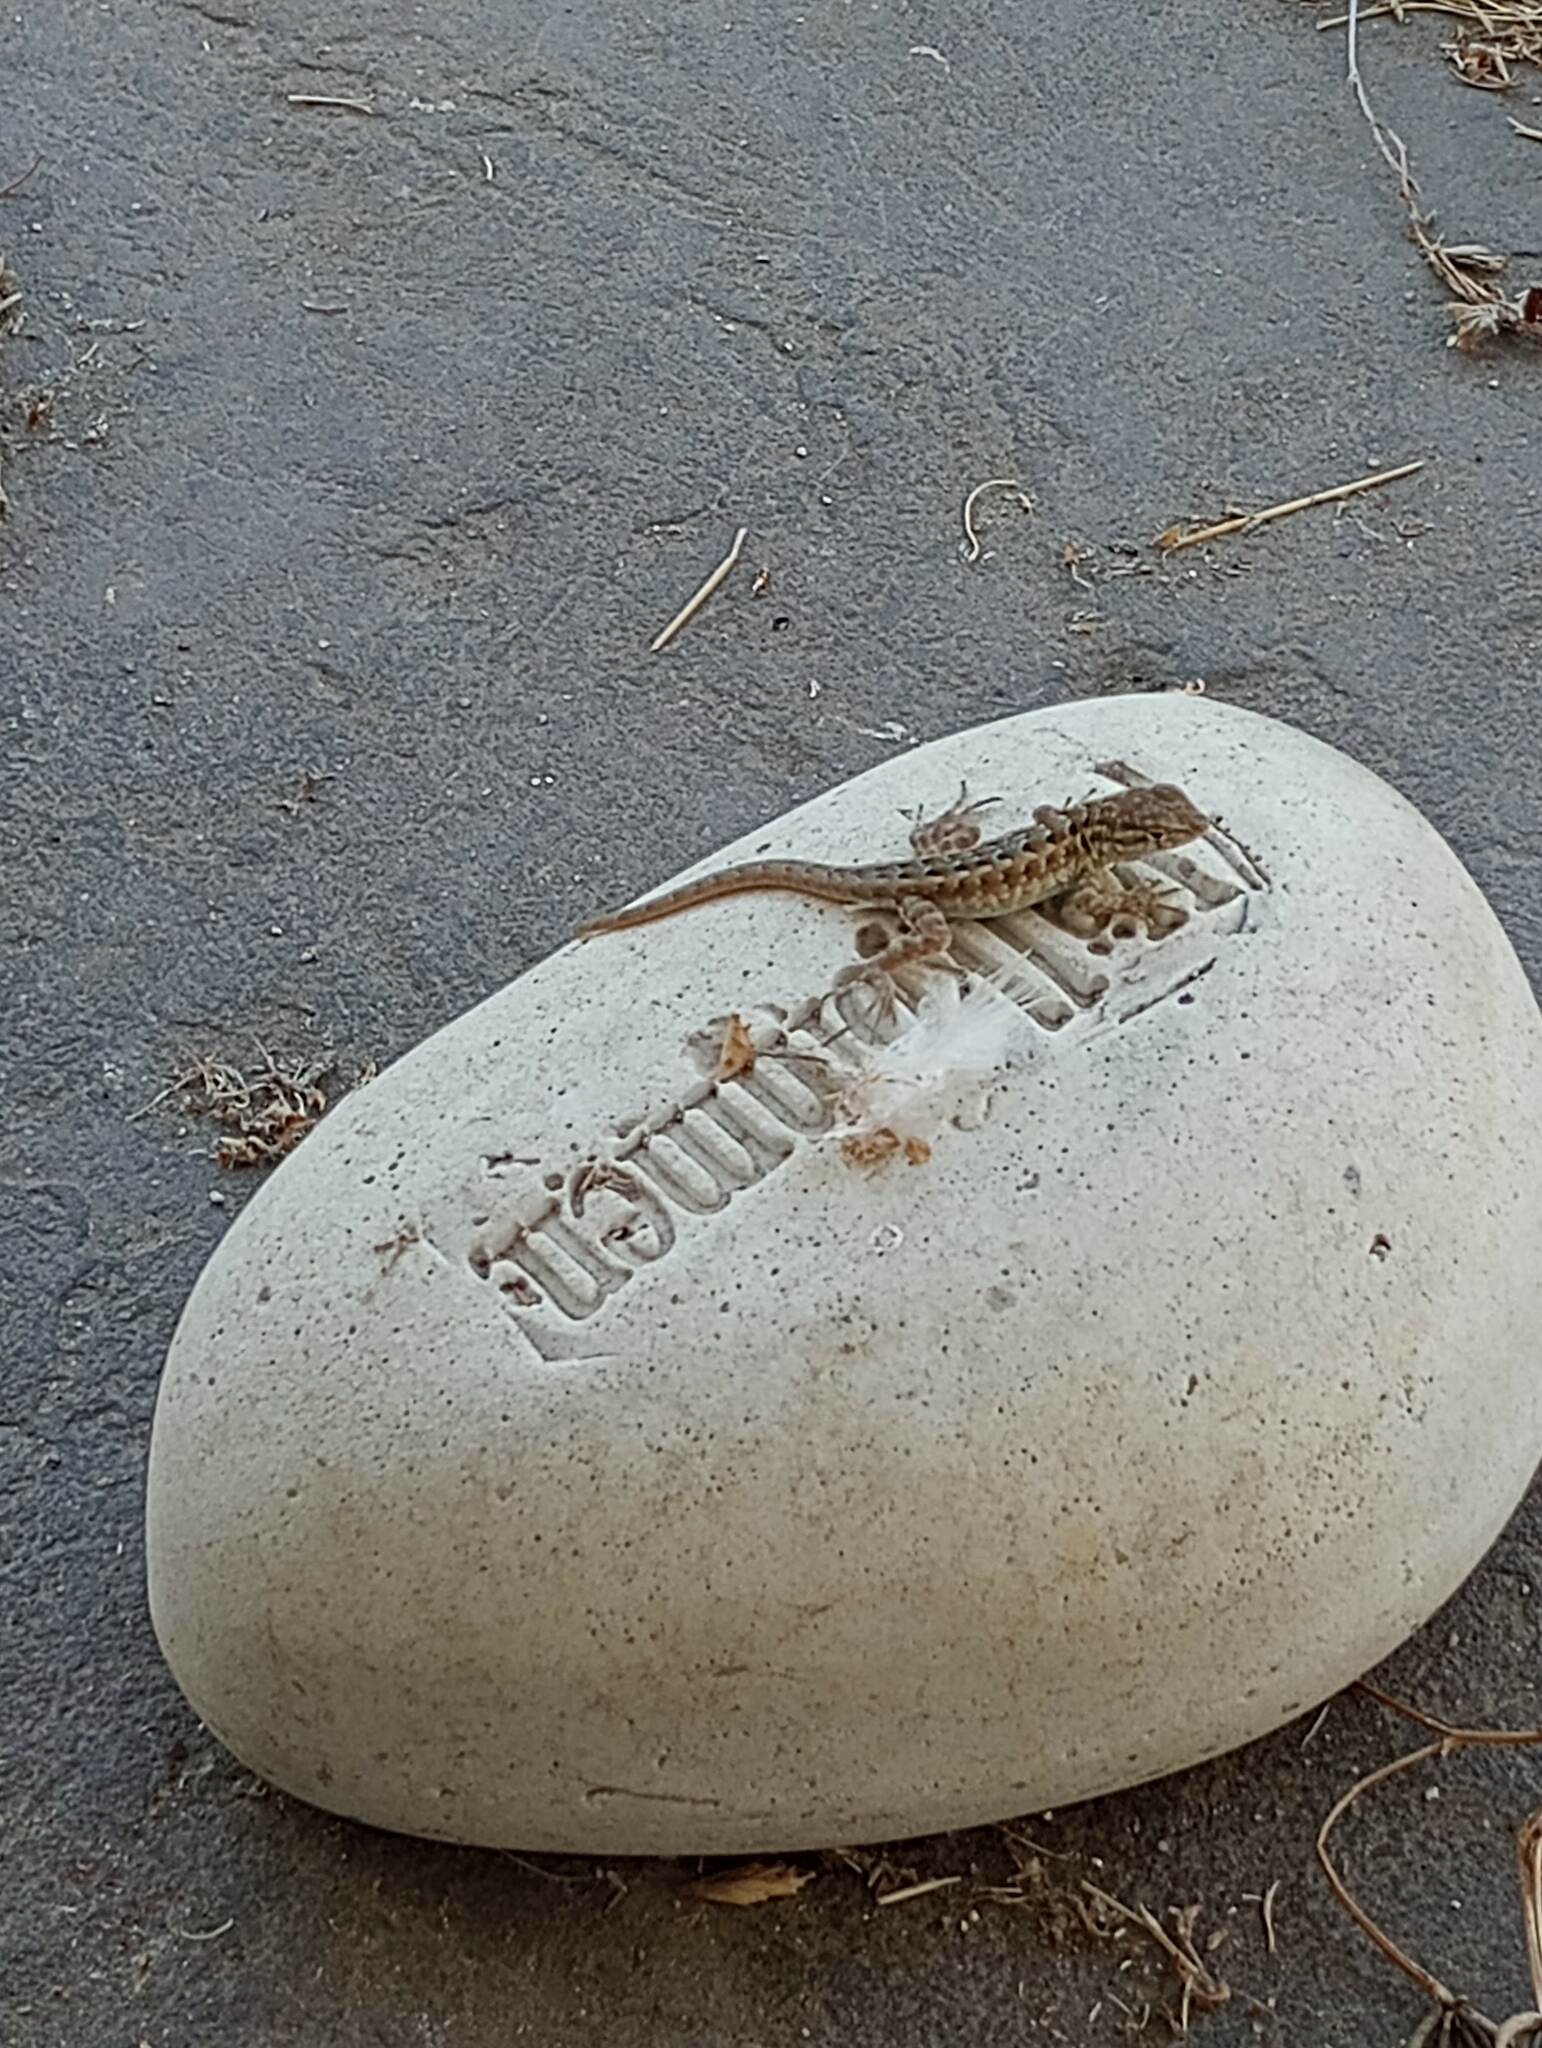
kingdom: Animalia
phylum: Chordata
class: Squamata
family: Phrynosomatidae
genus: Uta
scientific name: Uta stansburiana
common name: Side-blotched lizard
